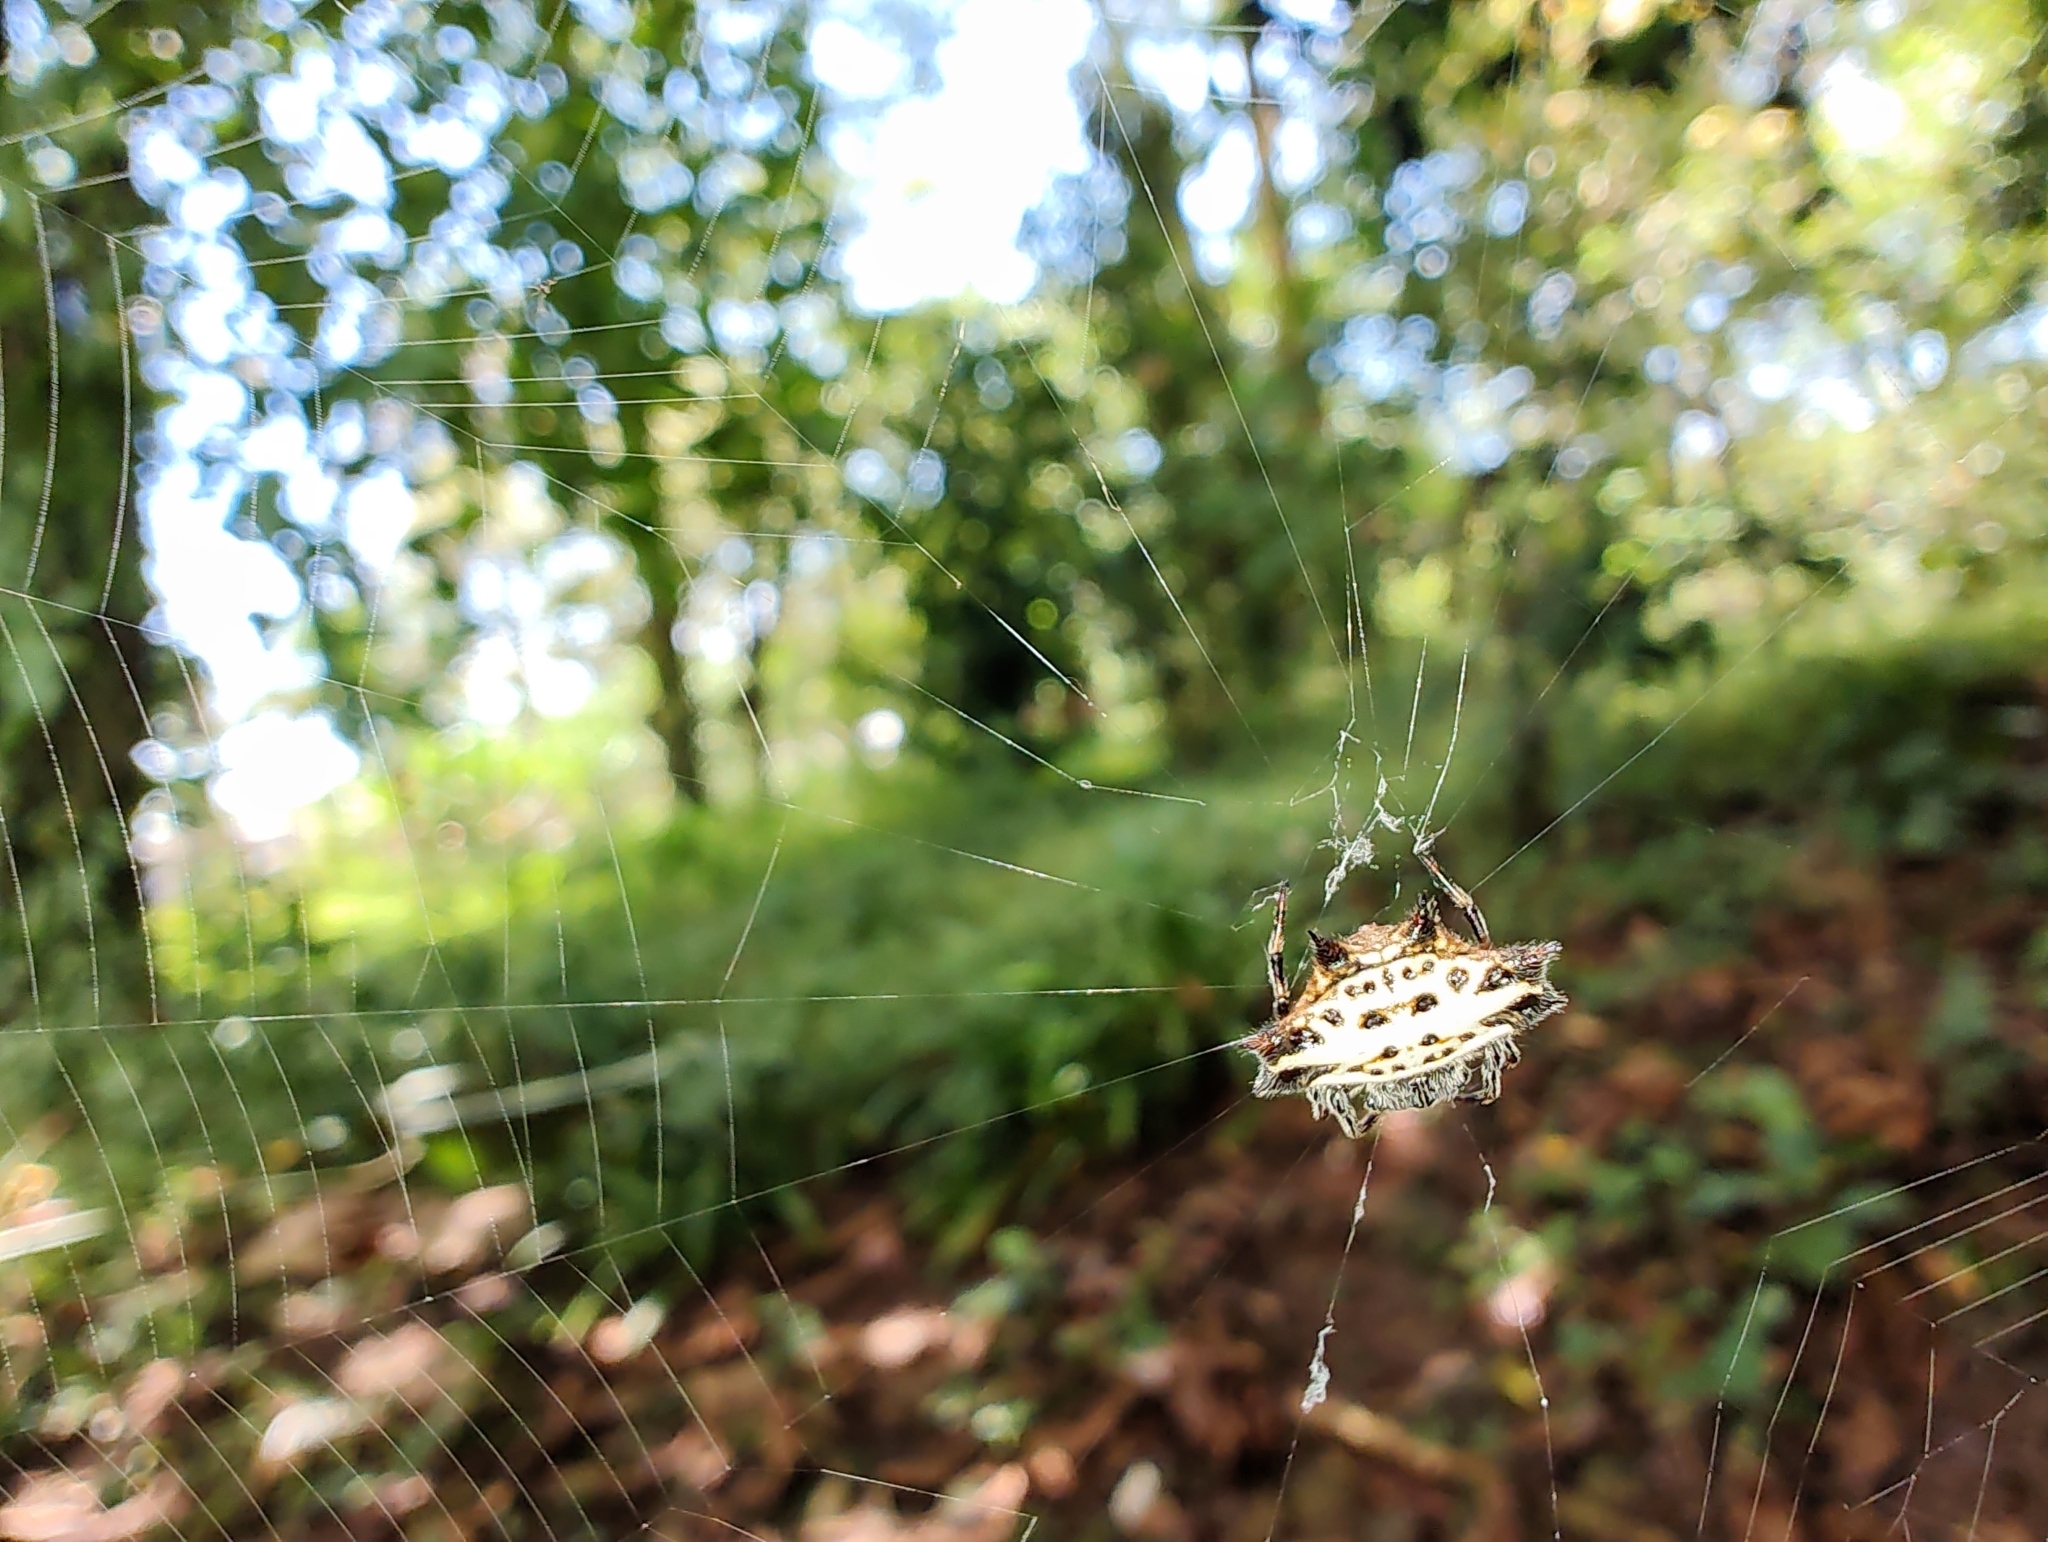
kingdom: Animalia
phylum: Arthropoda
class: Arachnida
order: Araneae
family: Araneidae
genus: Gasteracantha
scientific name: Gasteracantha cancriformis
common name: Orb weavers
